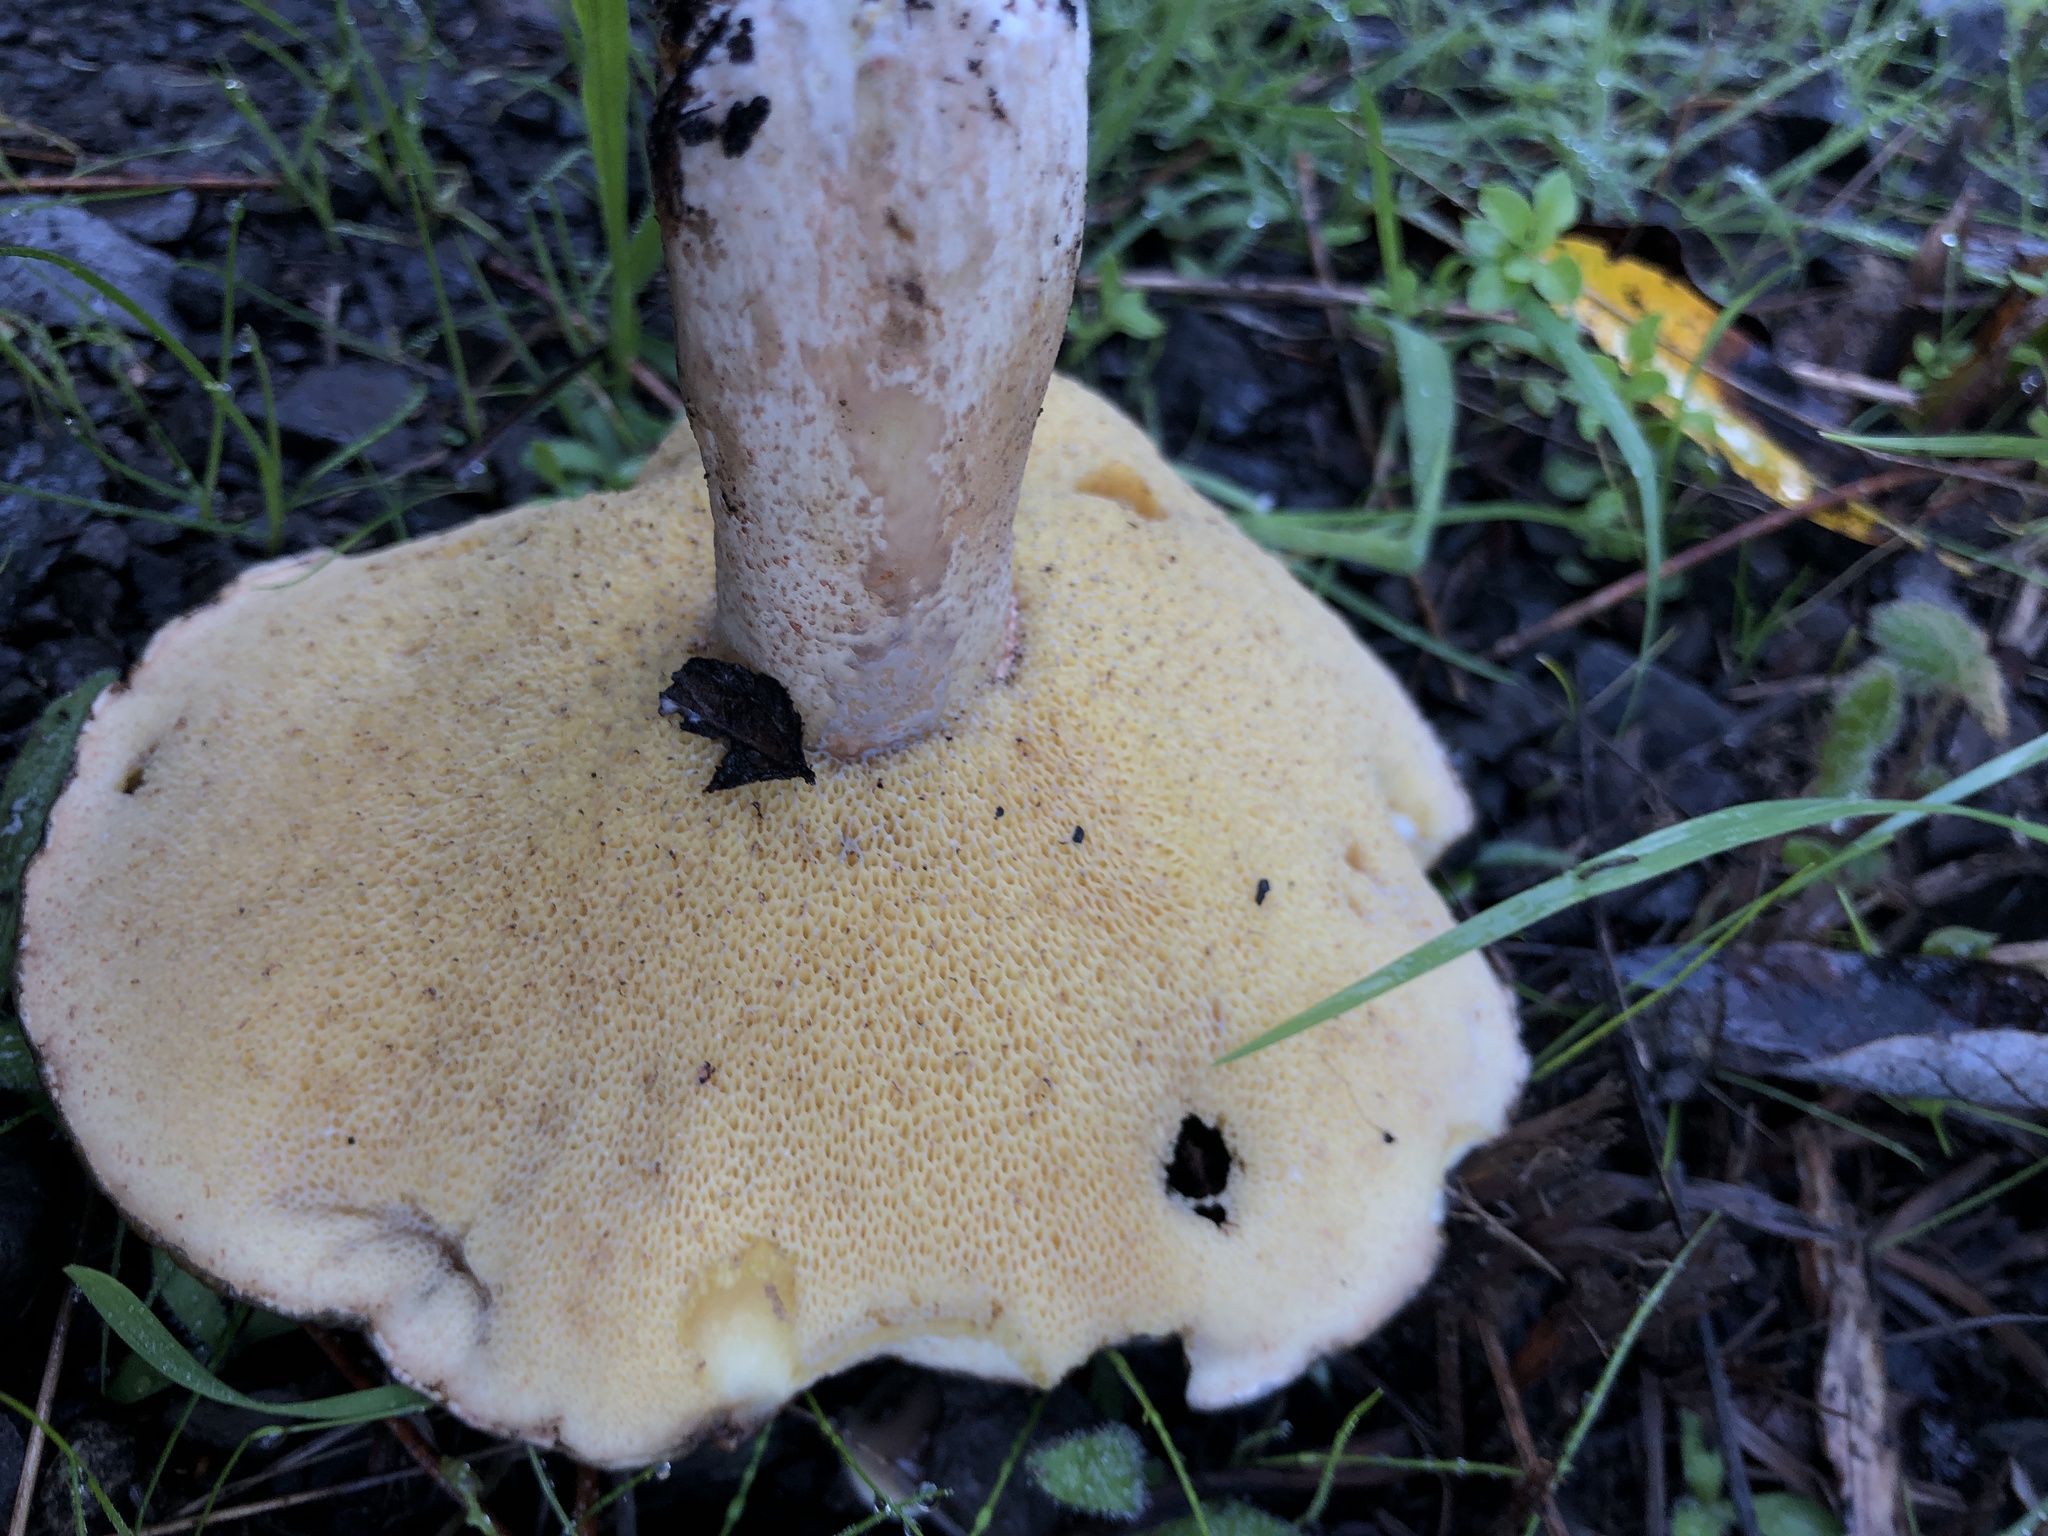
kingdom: Fungi
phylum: Basidiomycota
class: Agaricomycetes
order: Boletales
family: Suillaceae
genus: Suillus
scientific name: Suillus pungens
